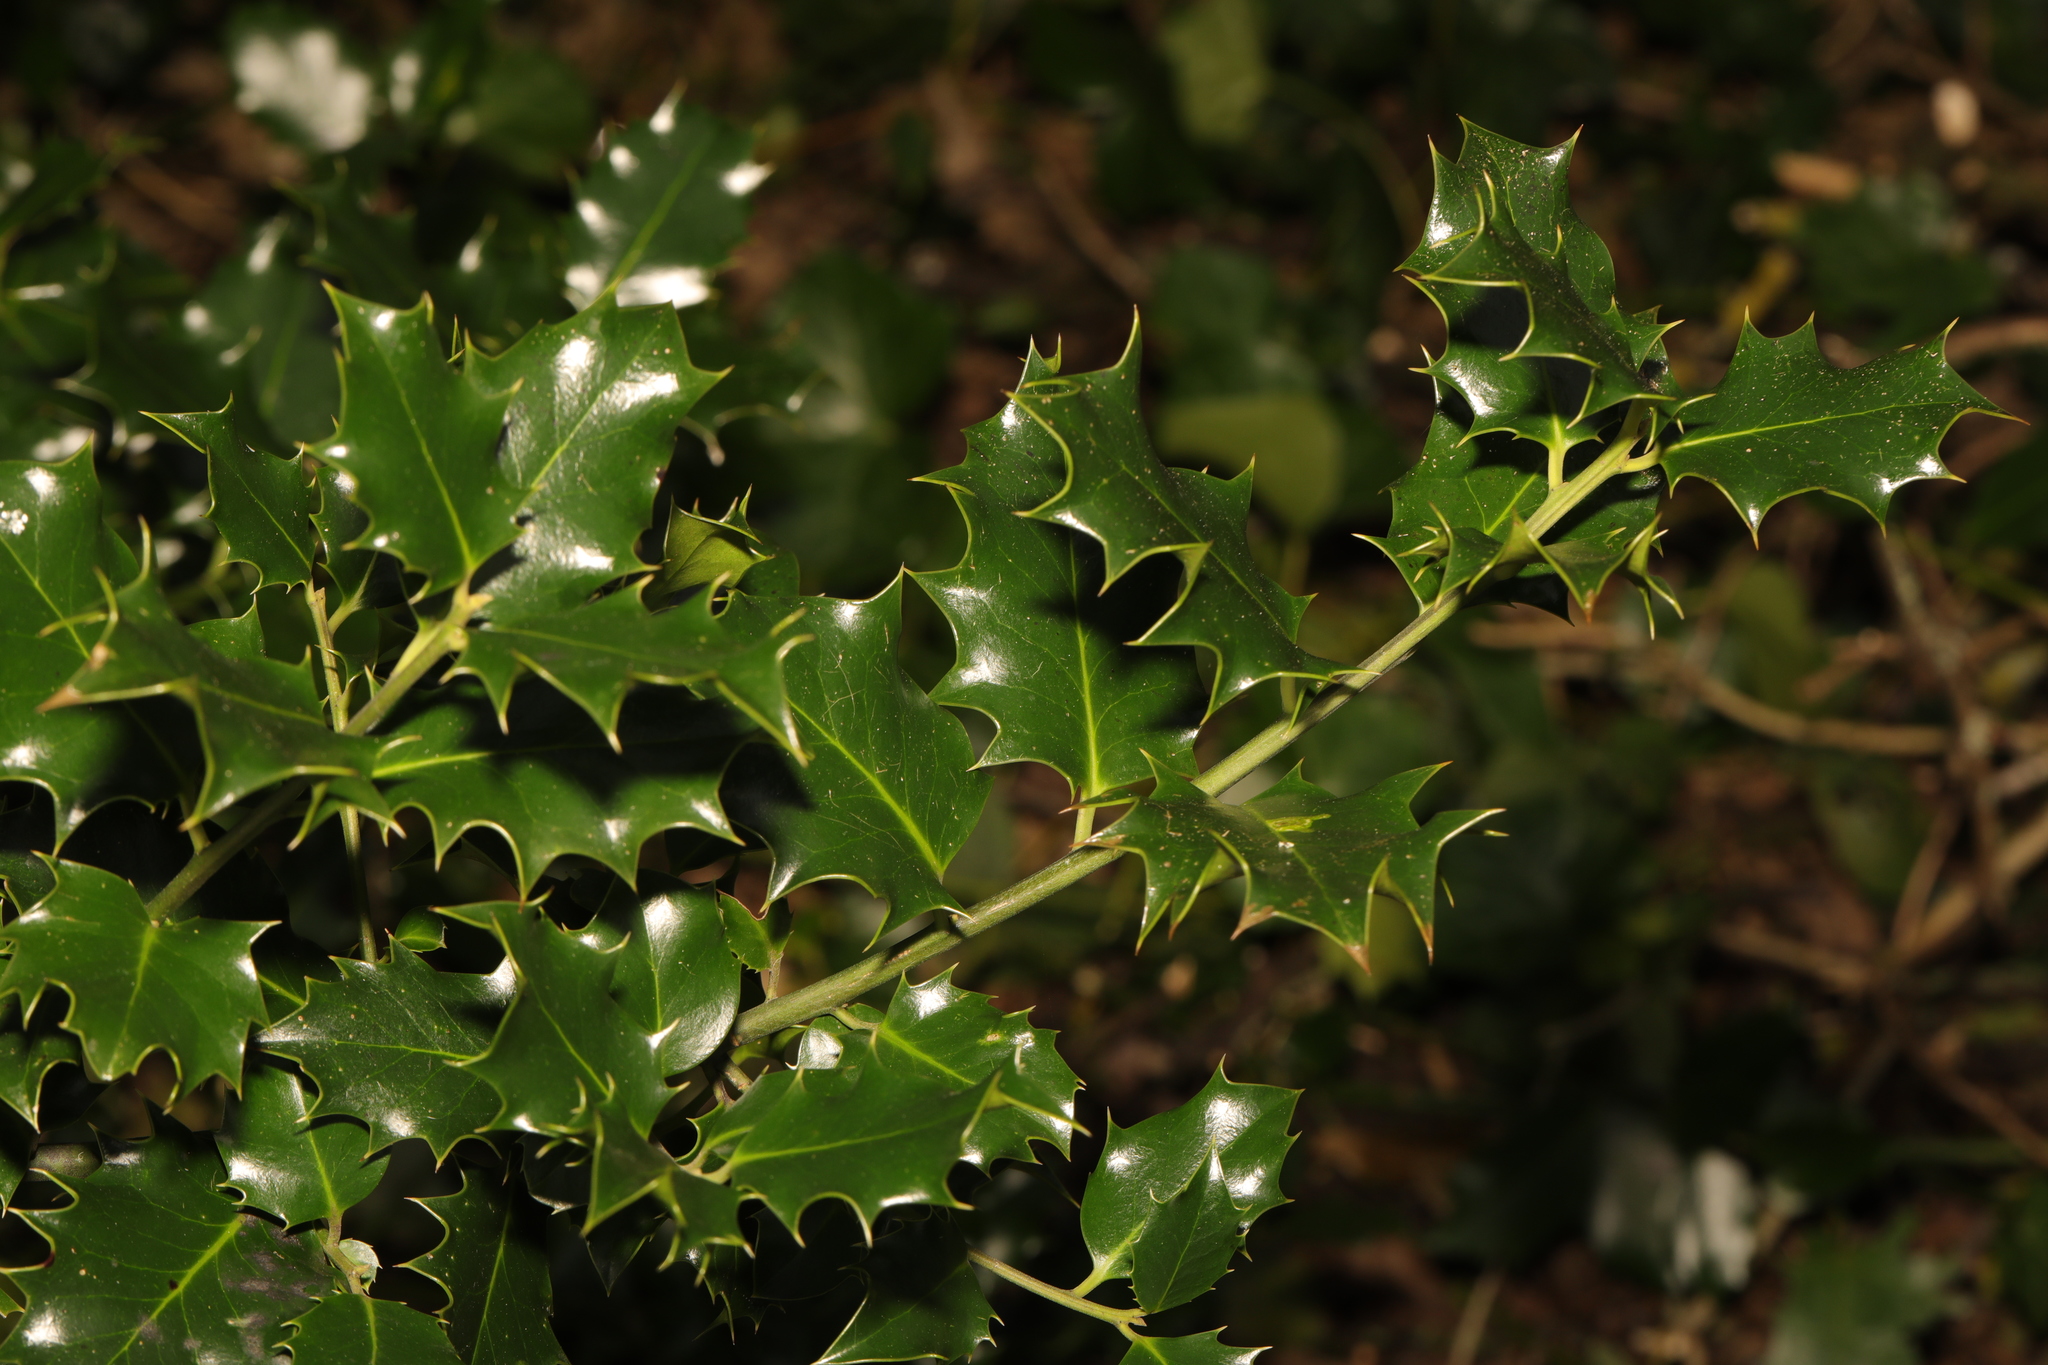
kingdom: Plantae
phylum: Tracheophyta
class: Magnoliopsida
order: Aquifoliales
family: Aquifoliaceae
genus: Ilex
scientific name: Ilex aquifolium
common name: English holly
